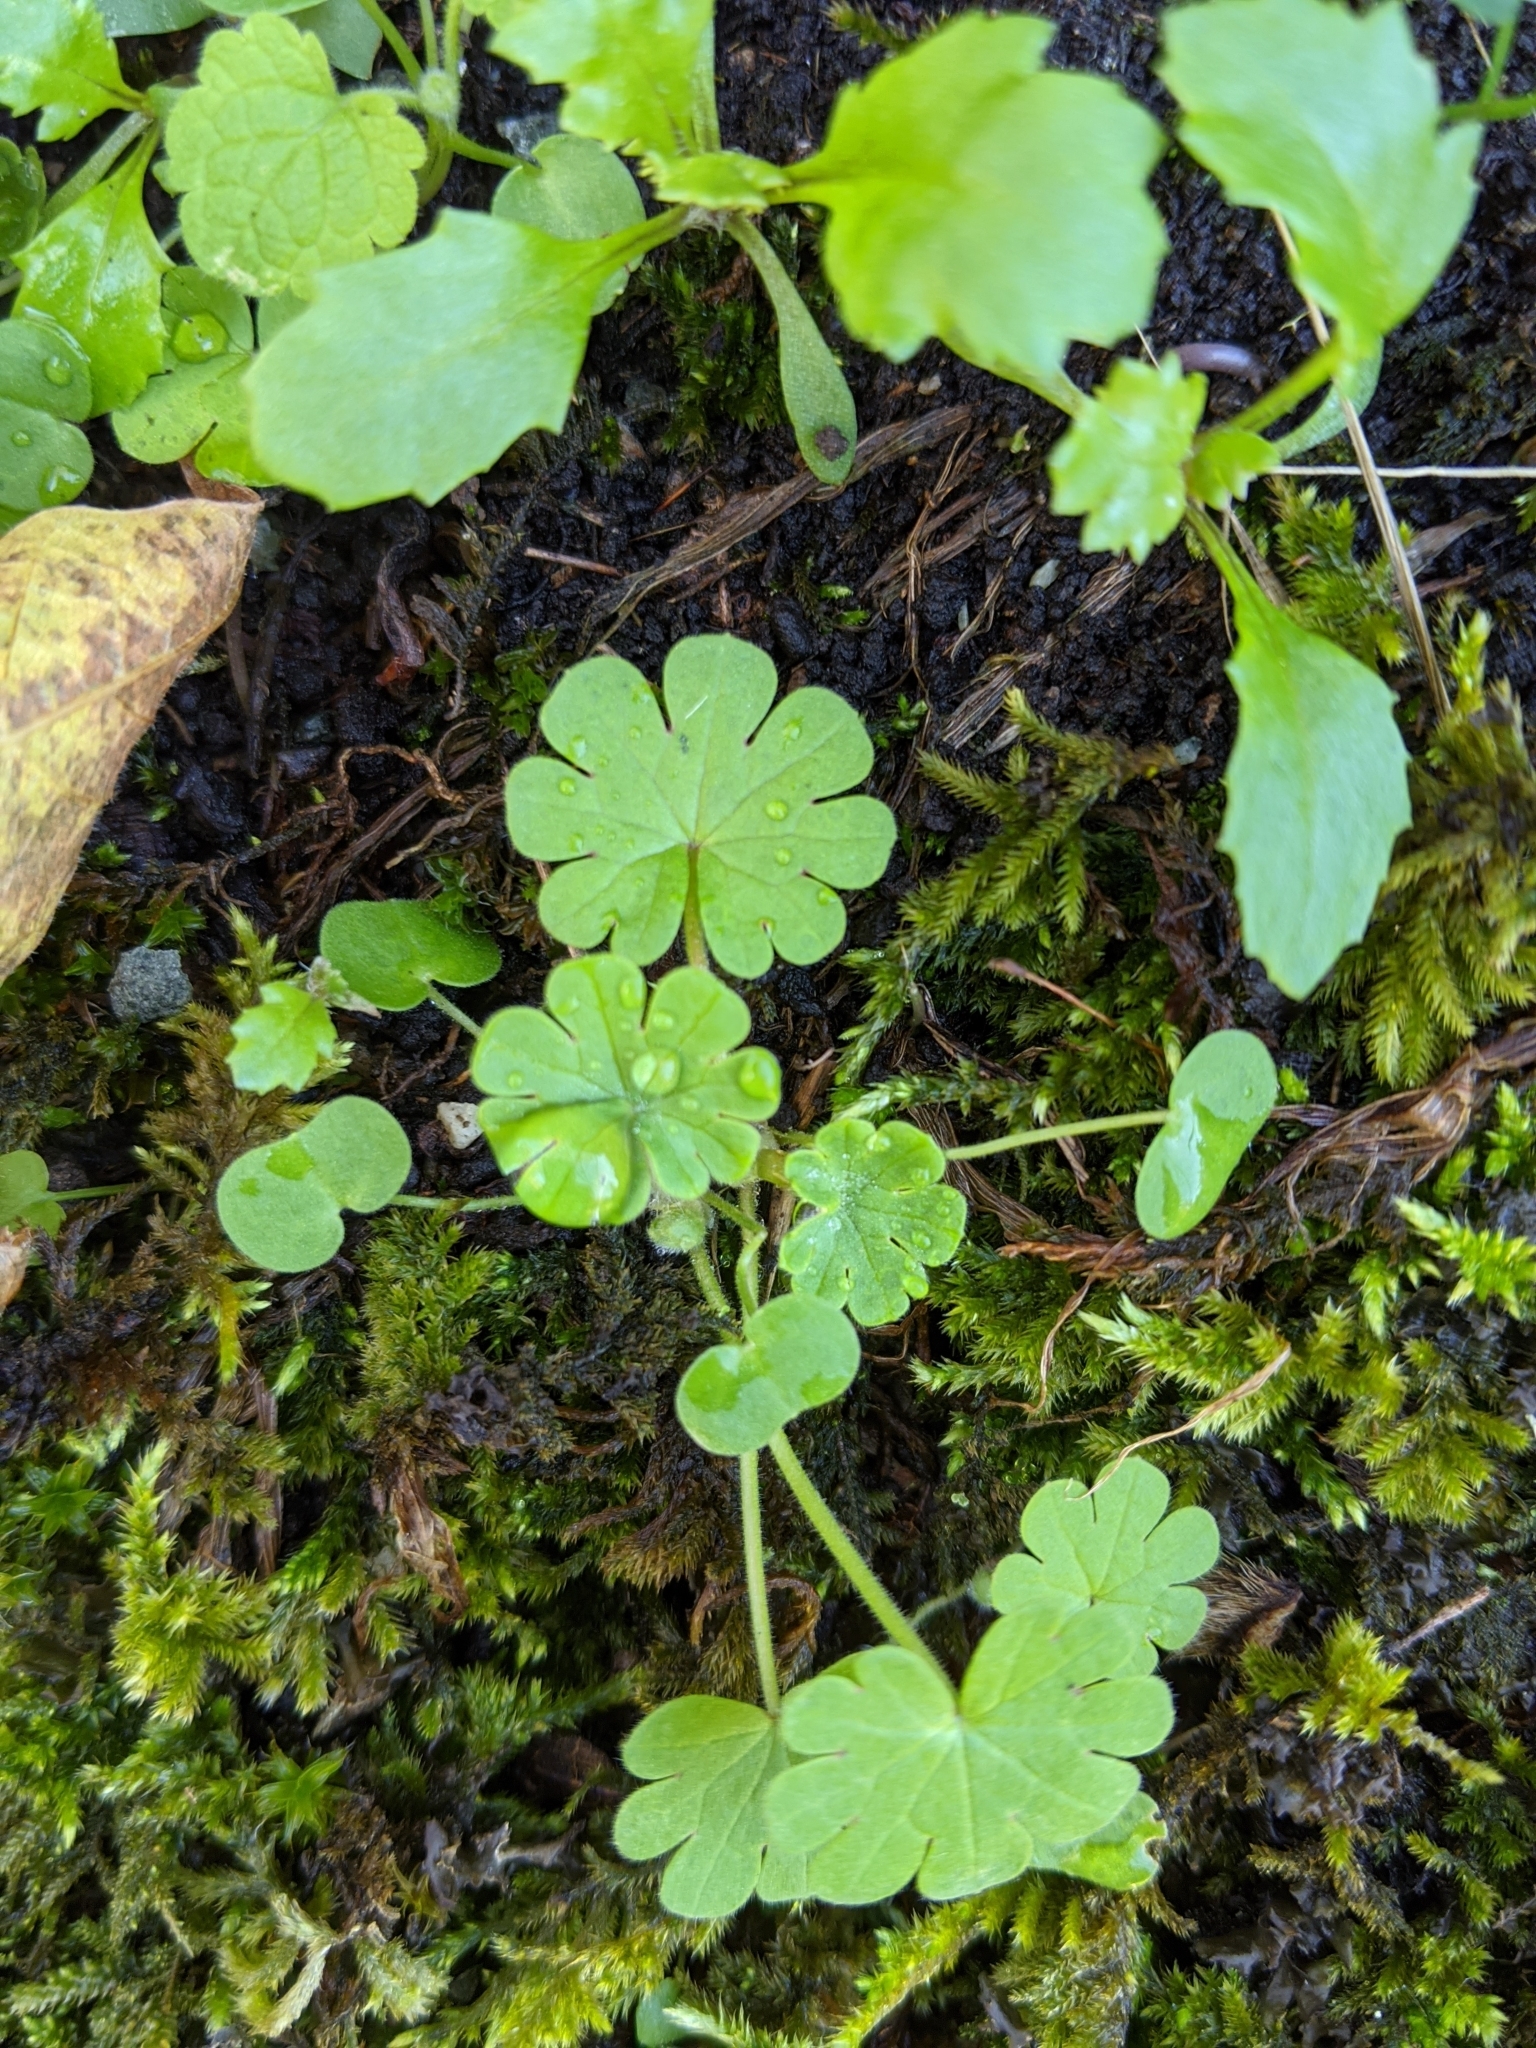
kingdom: Plantae
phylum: Tracheophyta
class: Magnoliopsida
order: Geraniales
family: Geraniaceae
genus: Geranium
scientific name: Geranium molle
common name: Dove's-foot crane's-bill
